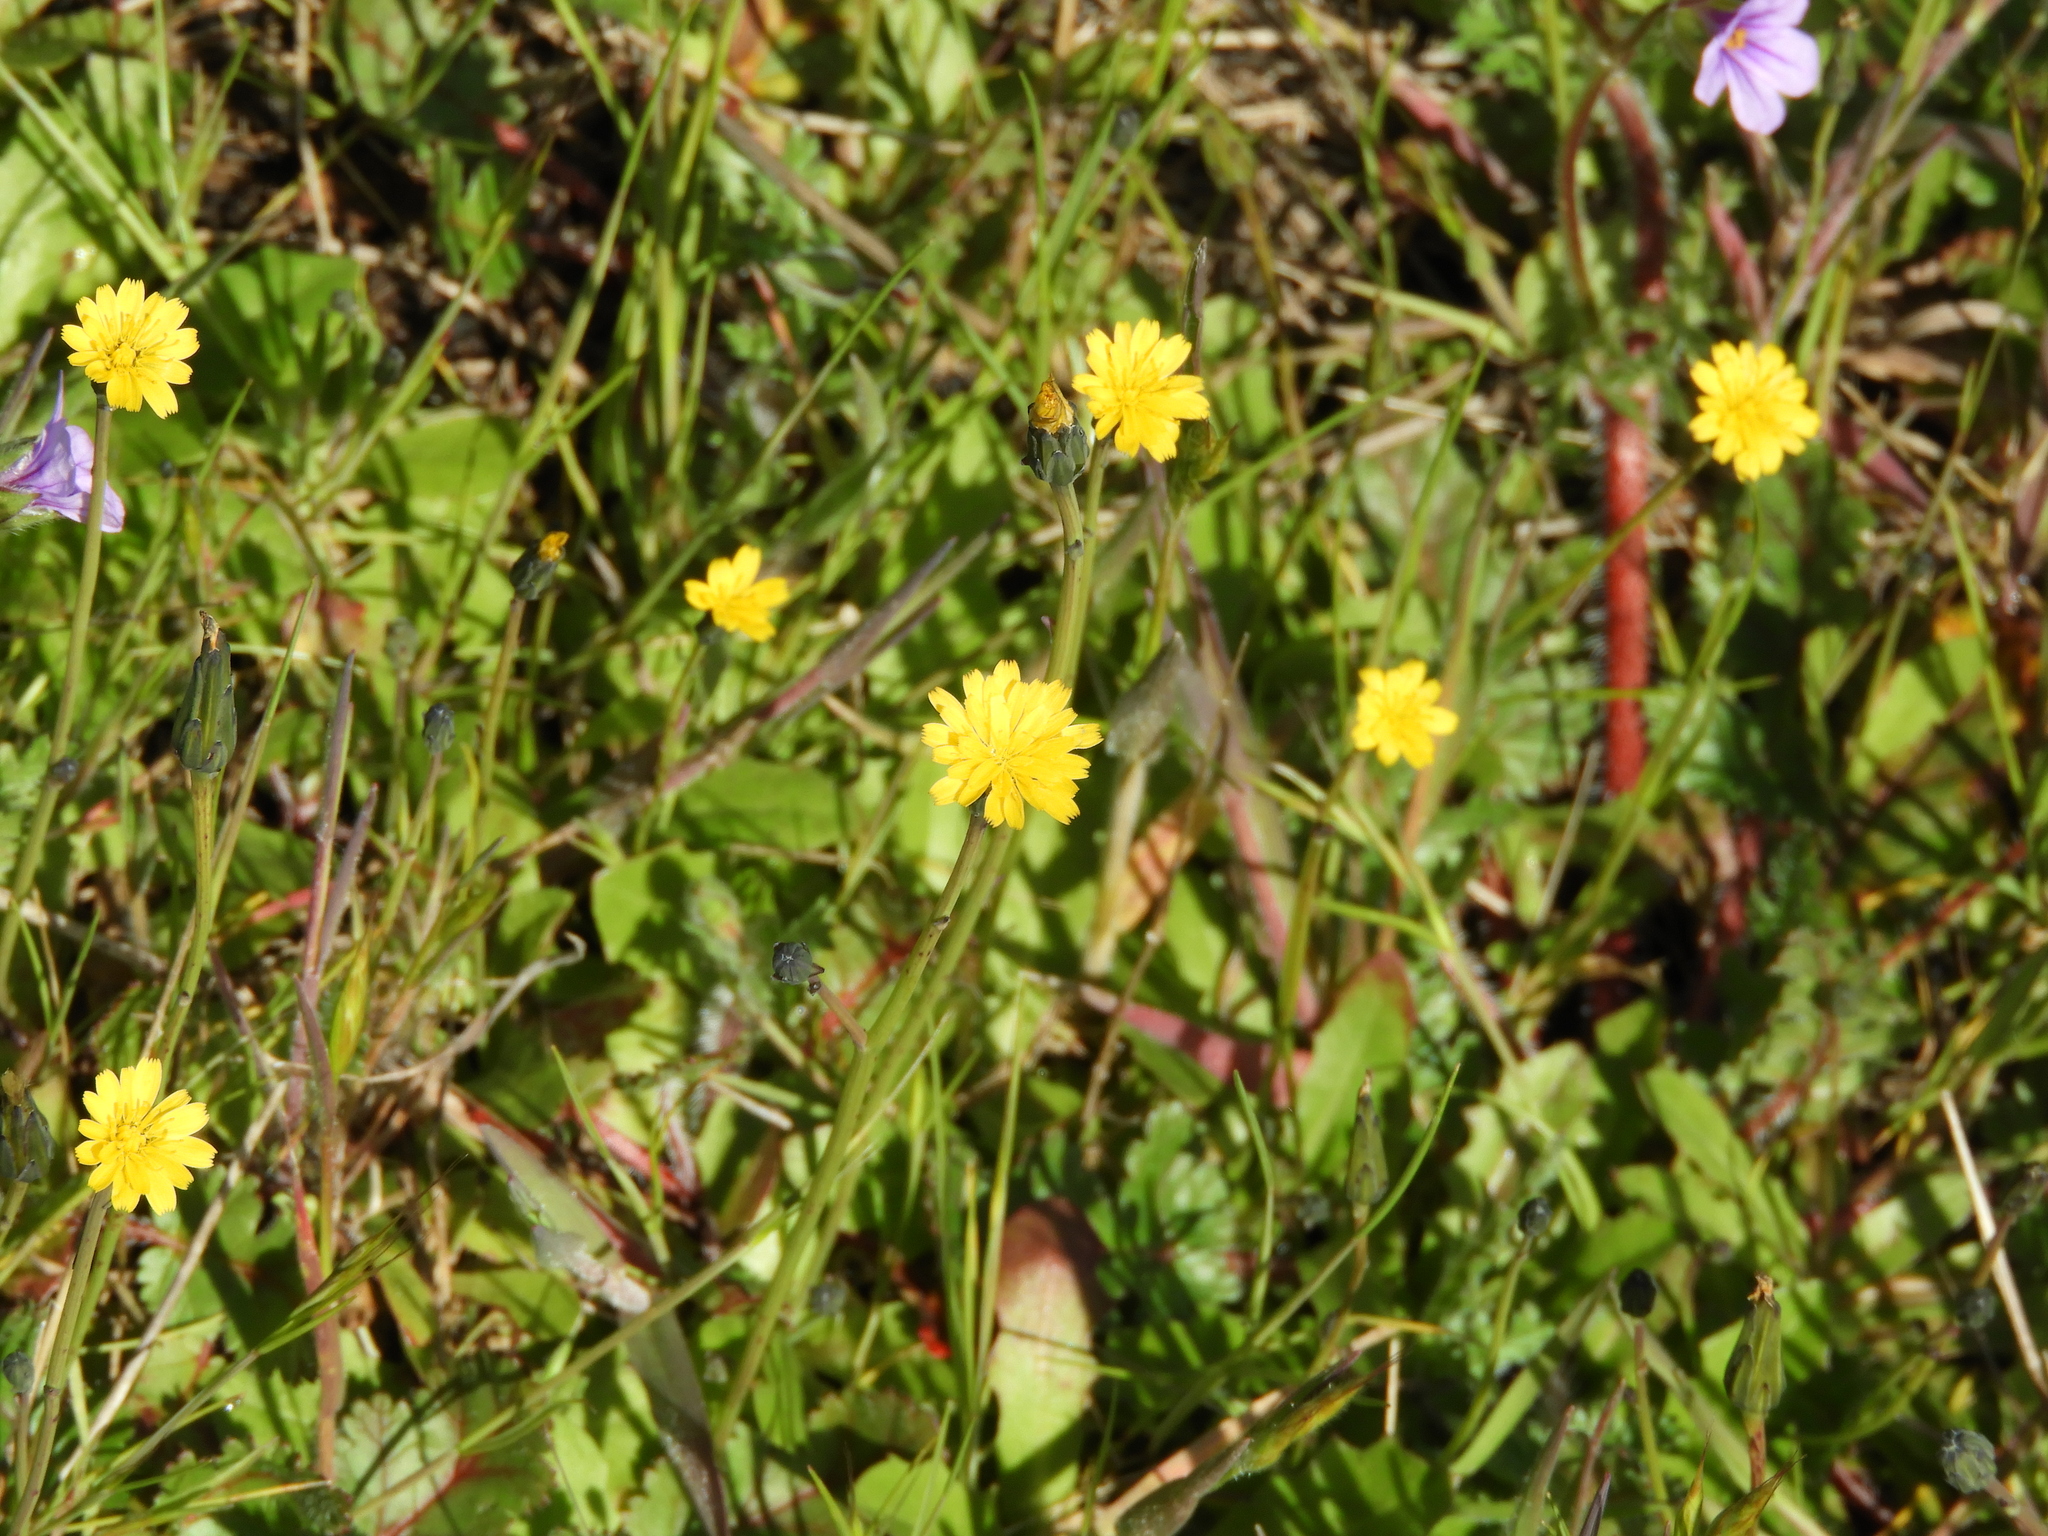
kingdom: Plantae
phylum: Tracheophyta
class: Magnoliopsida
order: Asterales
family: Asteraceae
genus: Hypochaeris
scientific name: Hypochaeris glabra
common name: Smooth catsear
